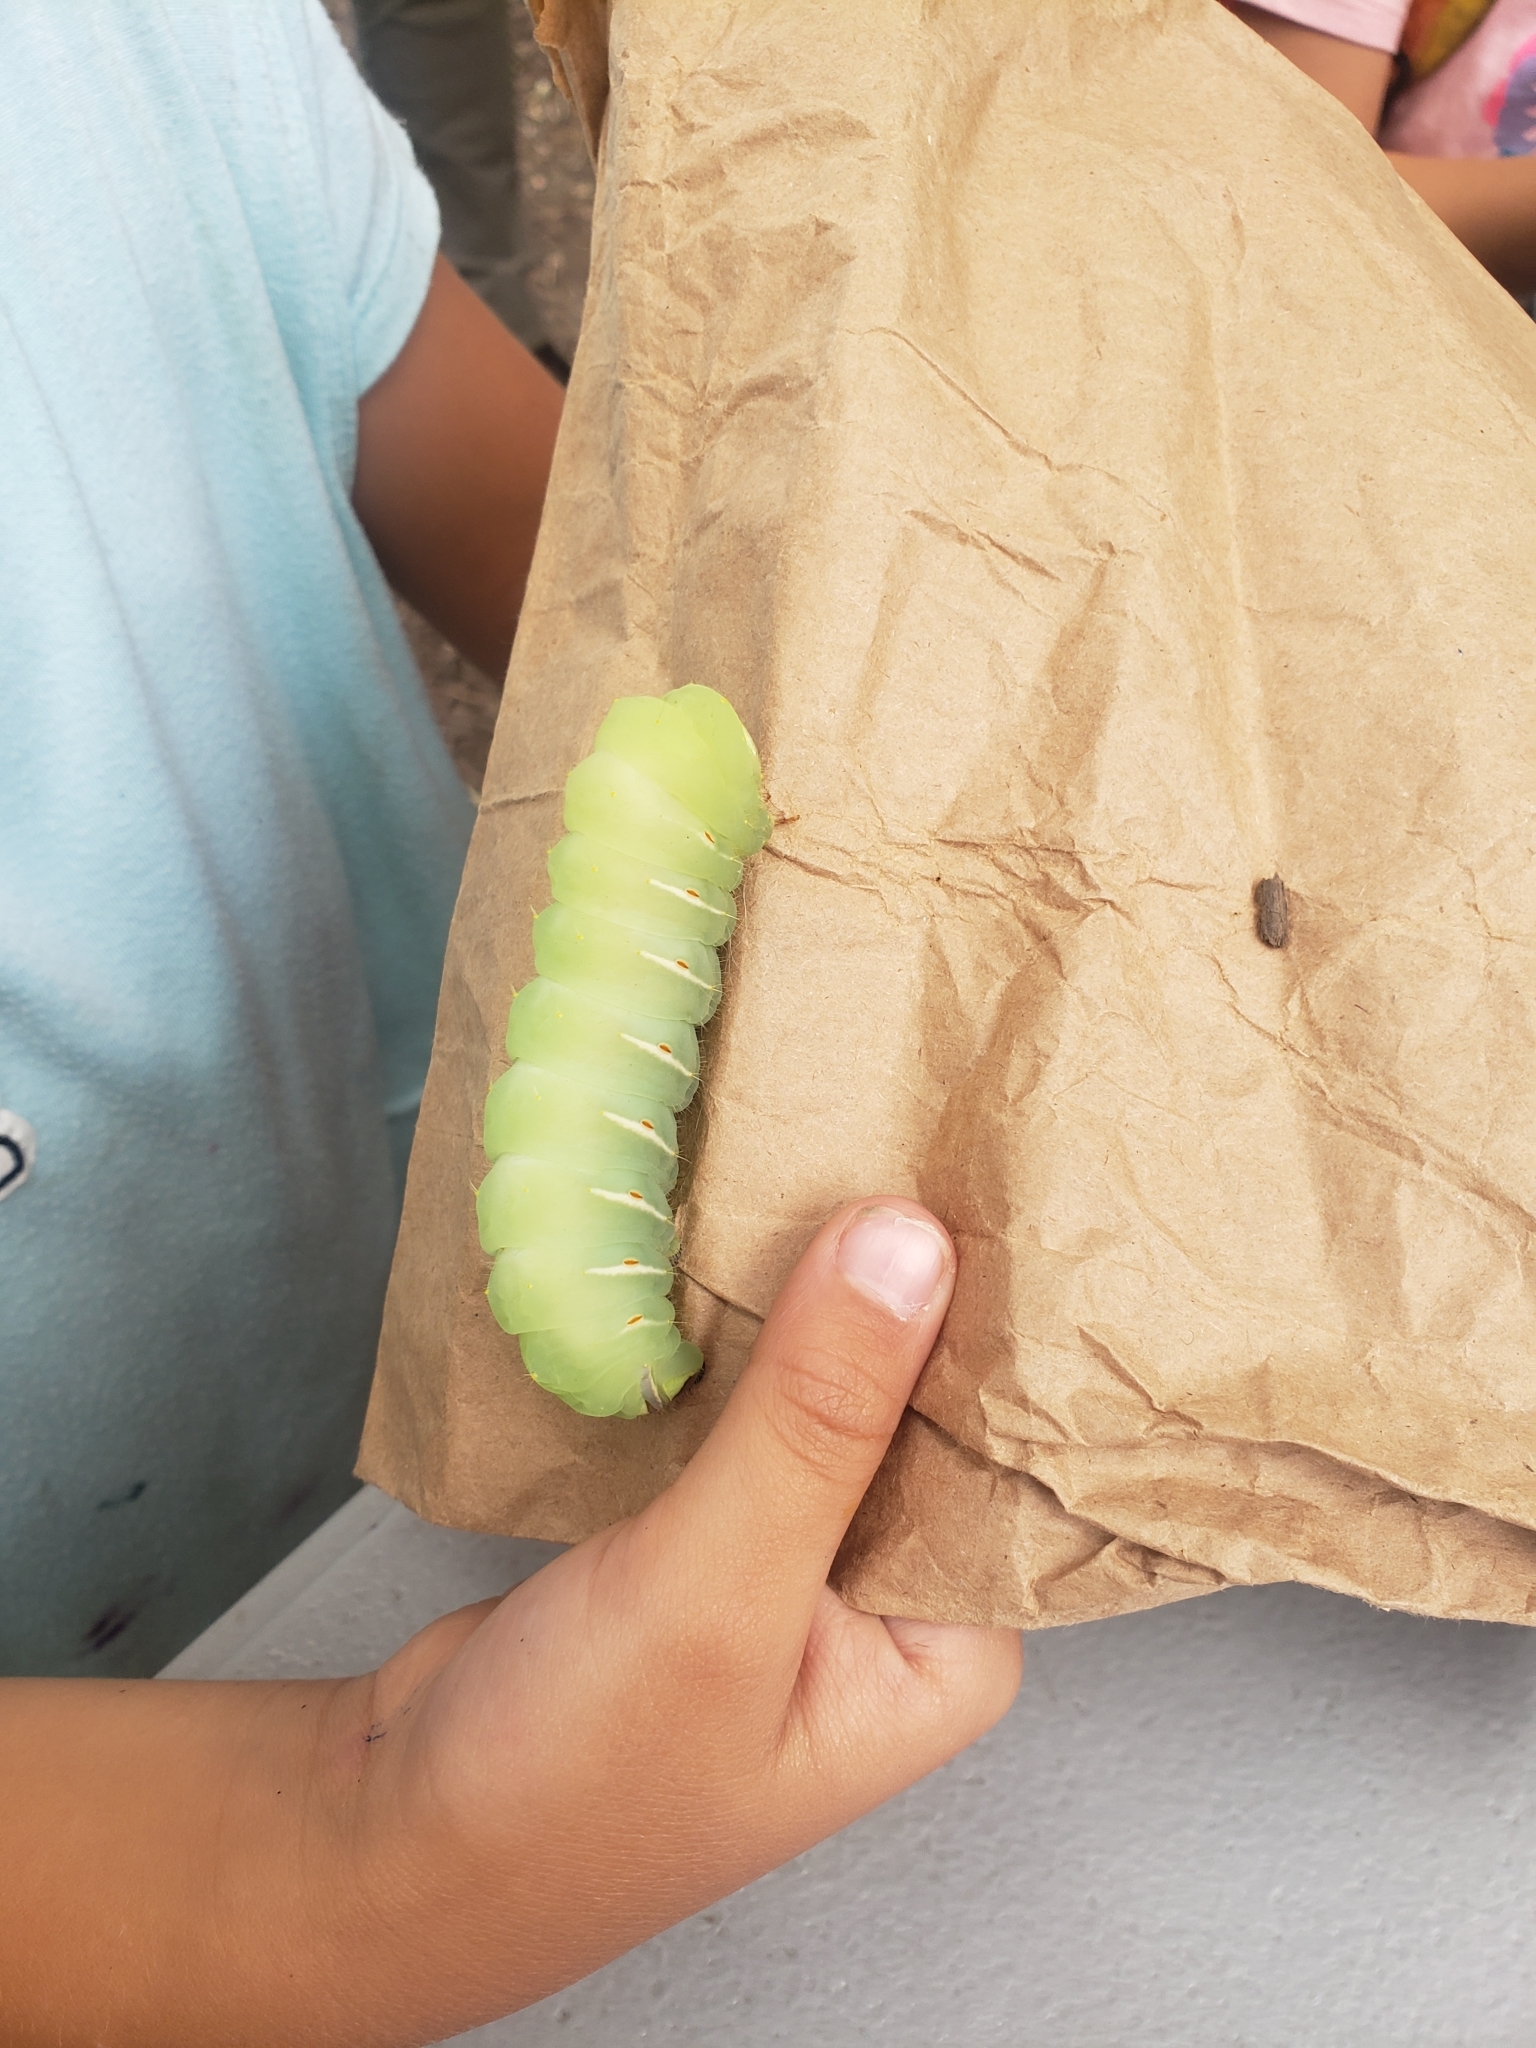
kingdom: Animalia
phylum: Arthropoda
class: Insecta
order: Lepidoptera
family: Saturniidae
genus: Antheraea
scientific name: Antheraea polyphemus
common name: Polyphemus moth
